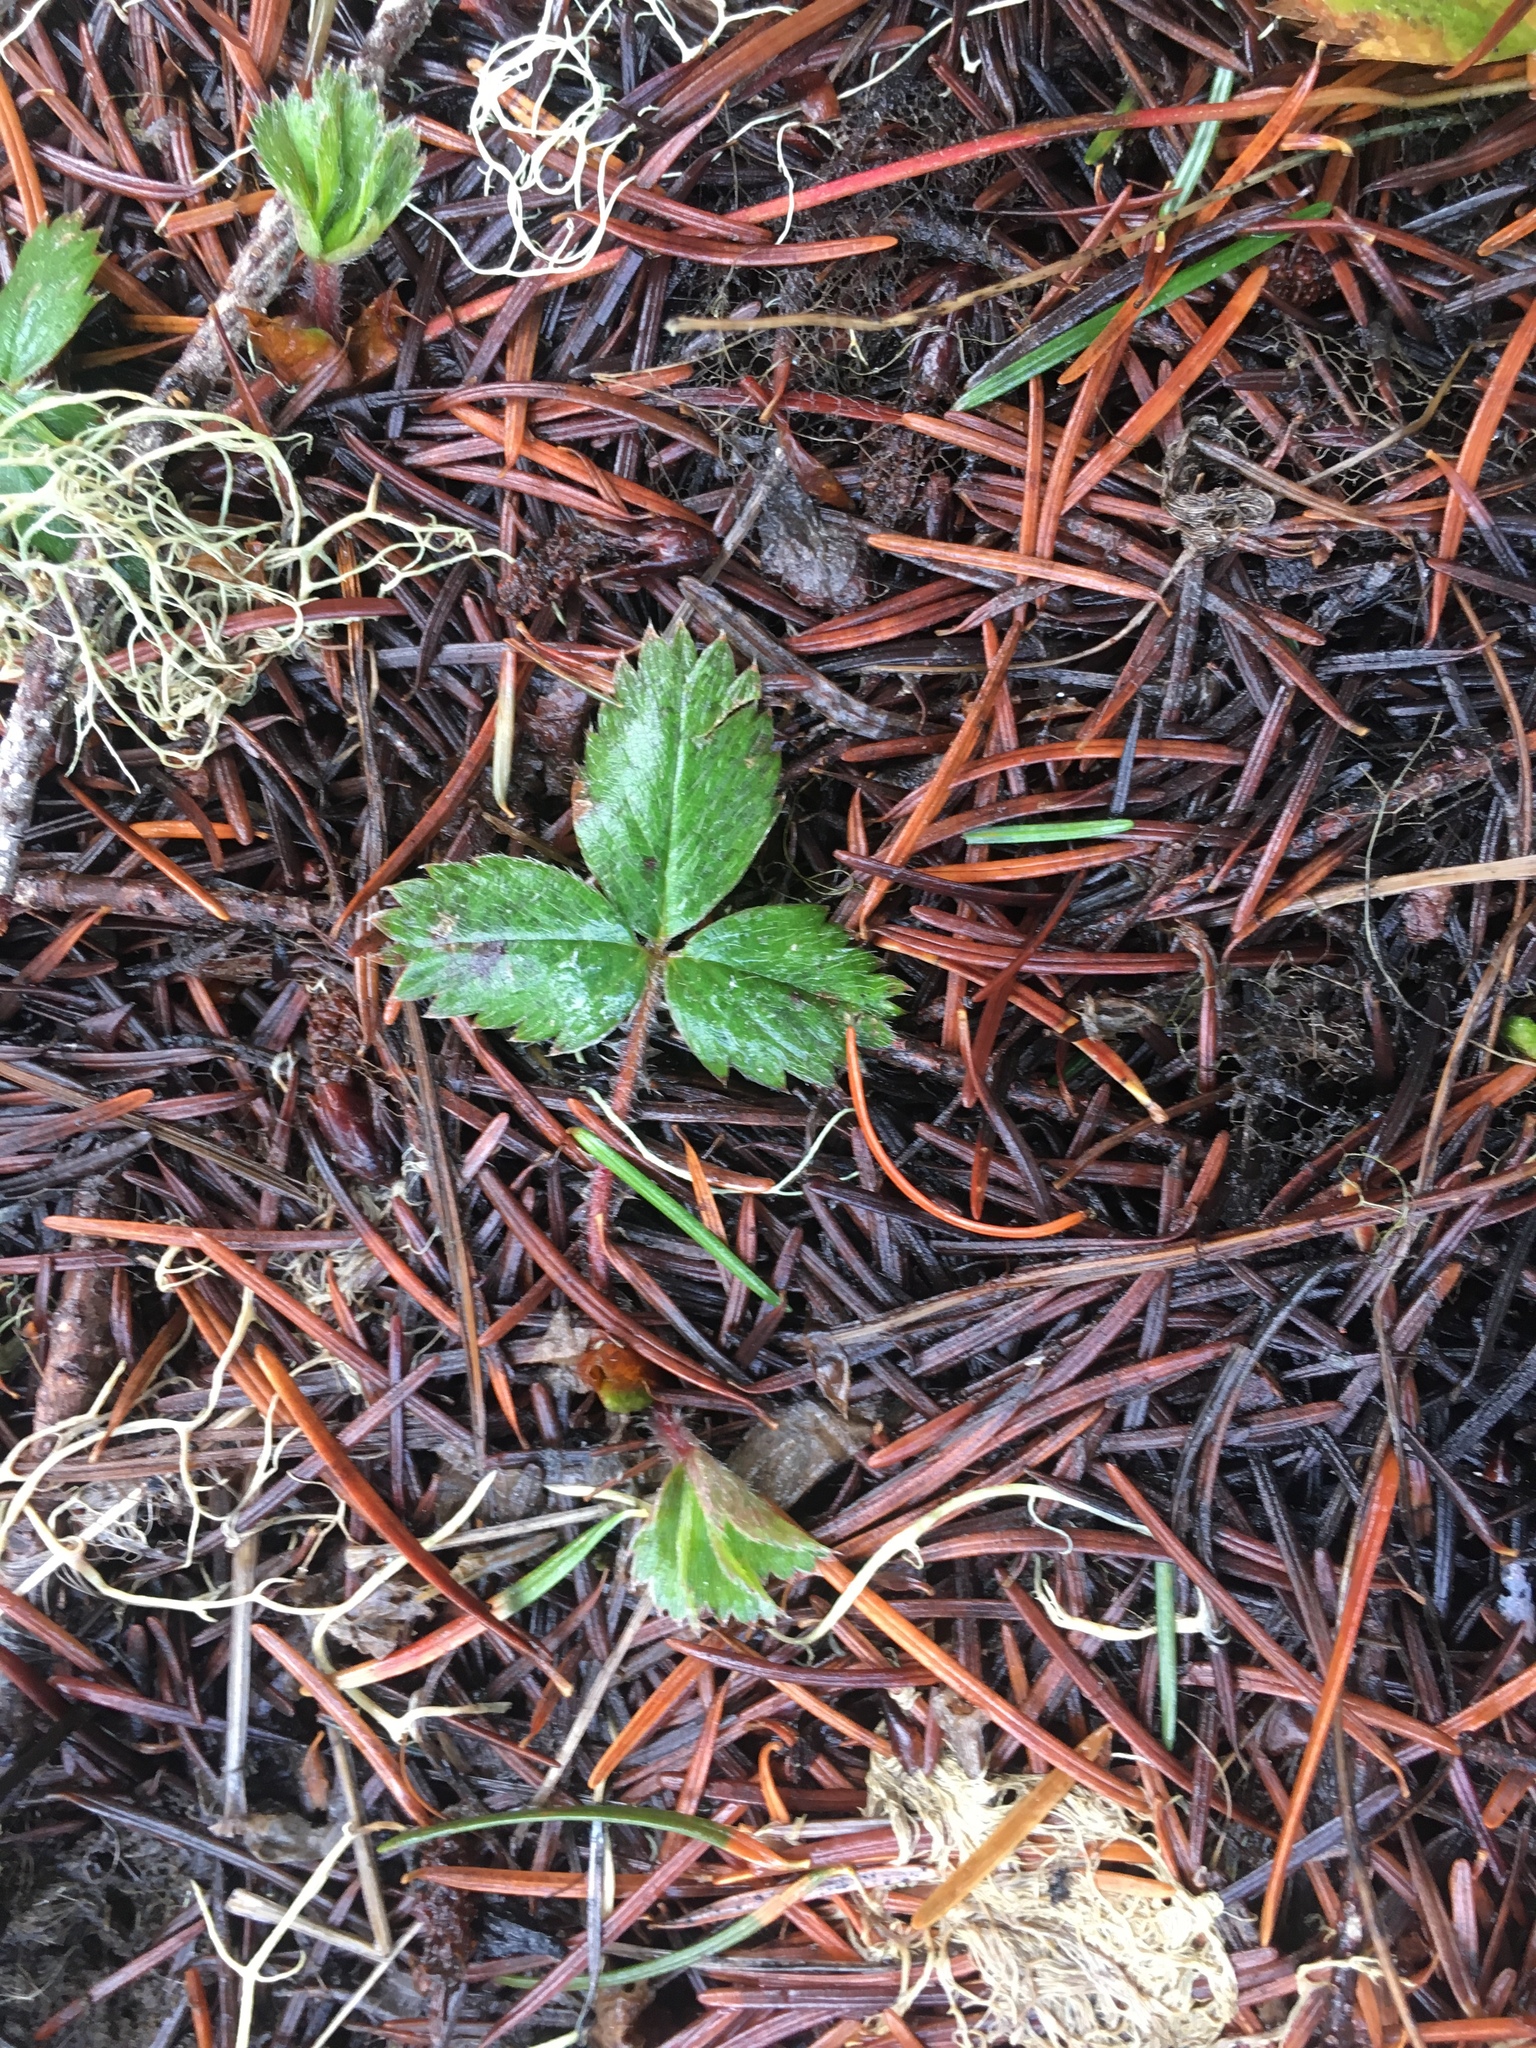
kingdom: Plantae
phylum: Tracheophyta
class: Magnoliopsida
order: Rosales
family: Rosaceae
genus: Fragaria
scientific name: Fragaria cascadensis
